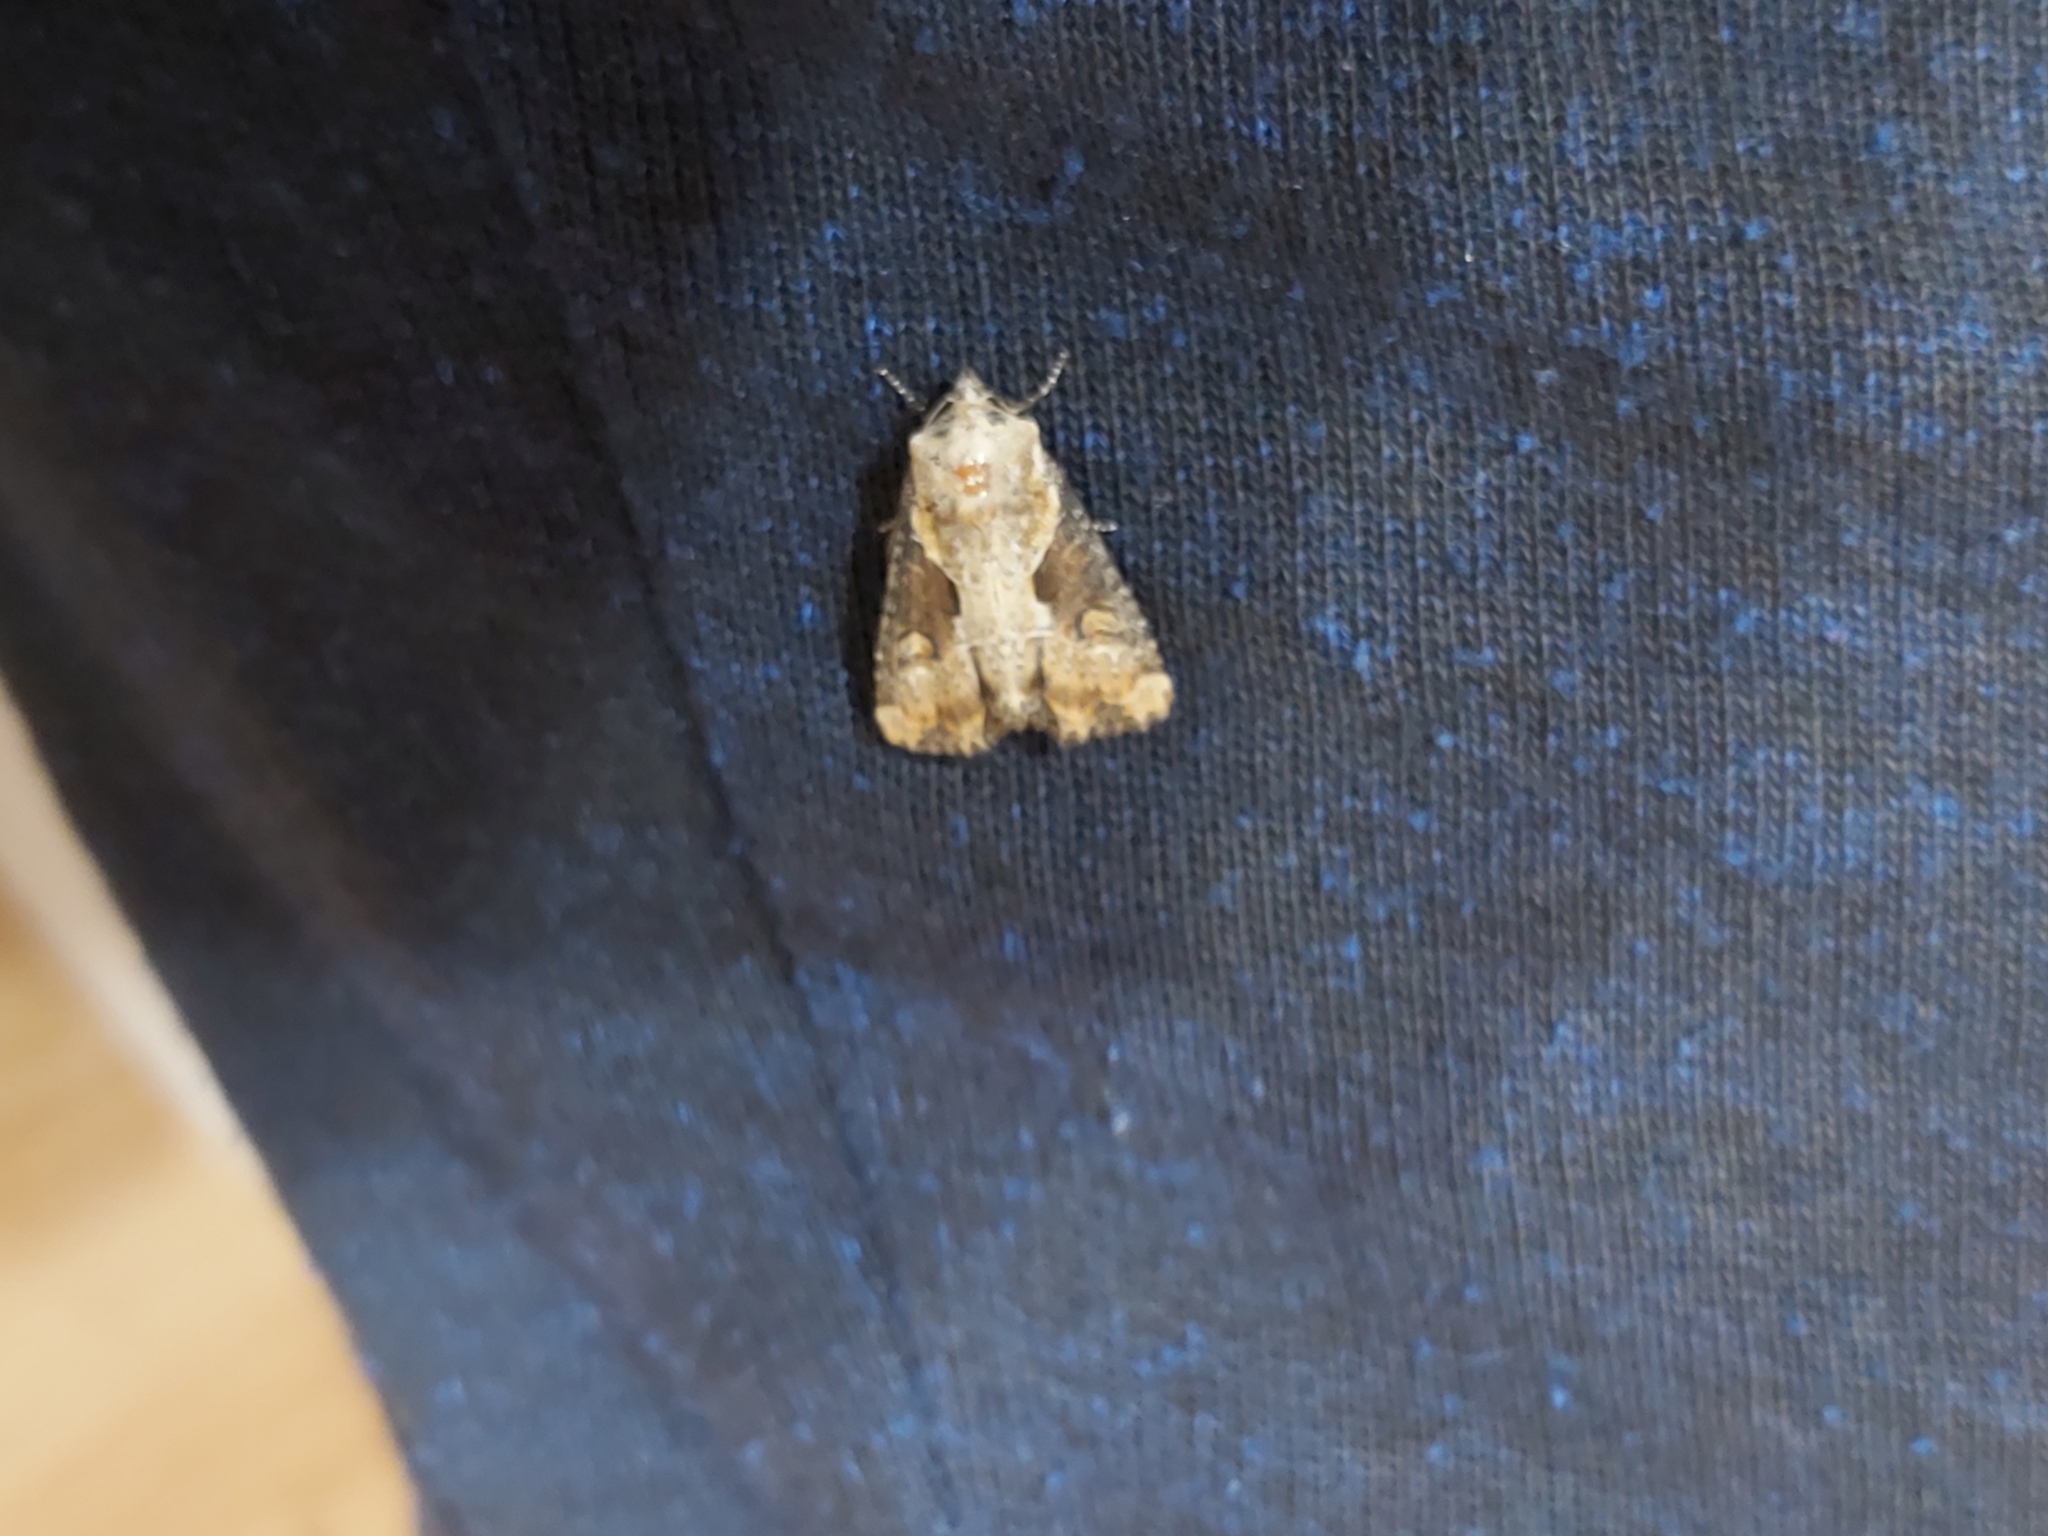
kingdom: Animalia
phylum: Arthropoda
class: Insecta
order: Lepidoptera
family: Noctuidae
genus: Lateroligia
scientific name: Lateroligia ophiogramma
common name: Double lobed
